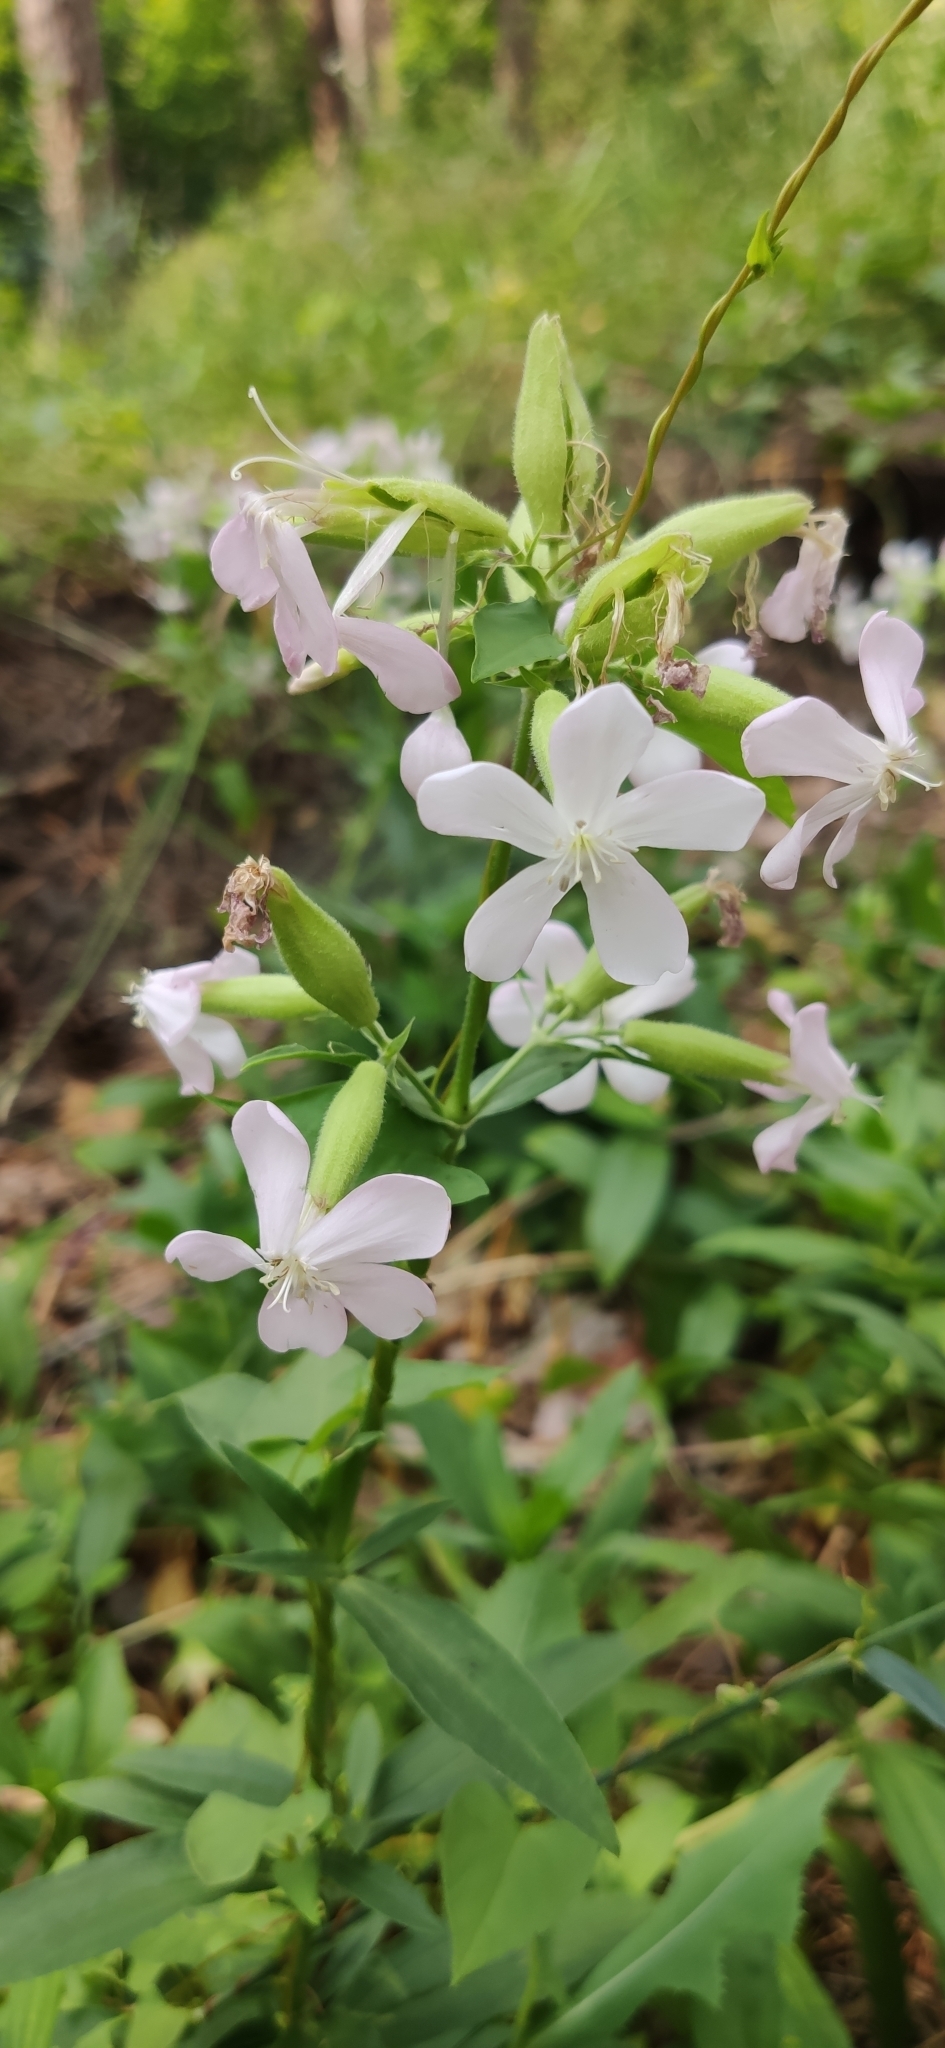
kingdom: Plantae
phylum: Tracheophyta
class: Magnoliopsida
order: Caryophyllales
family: Caryophyllaceae
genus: Saponaria
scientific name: Saponaria officinalis
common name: Soapwort
